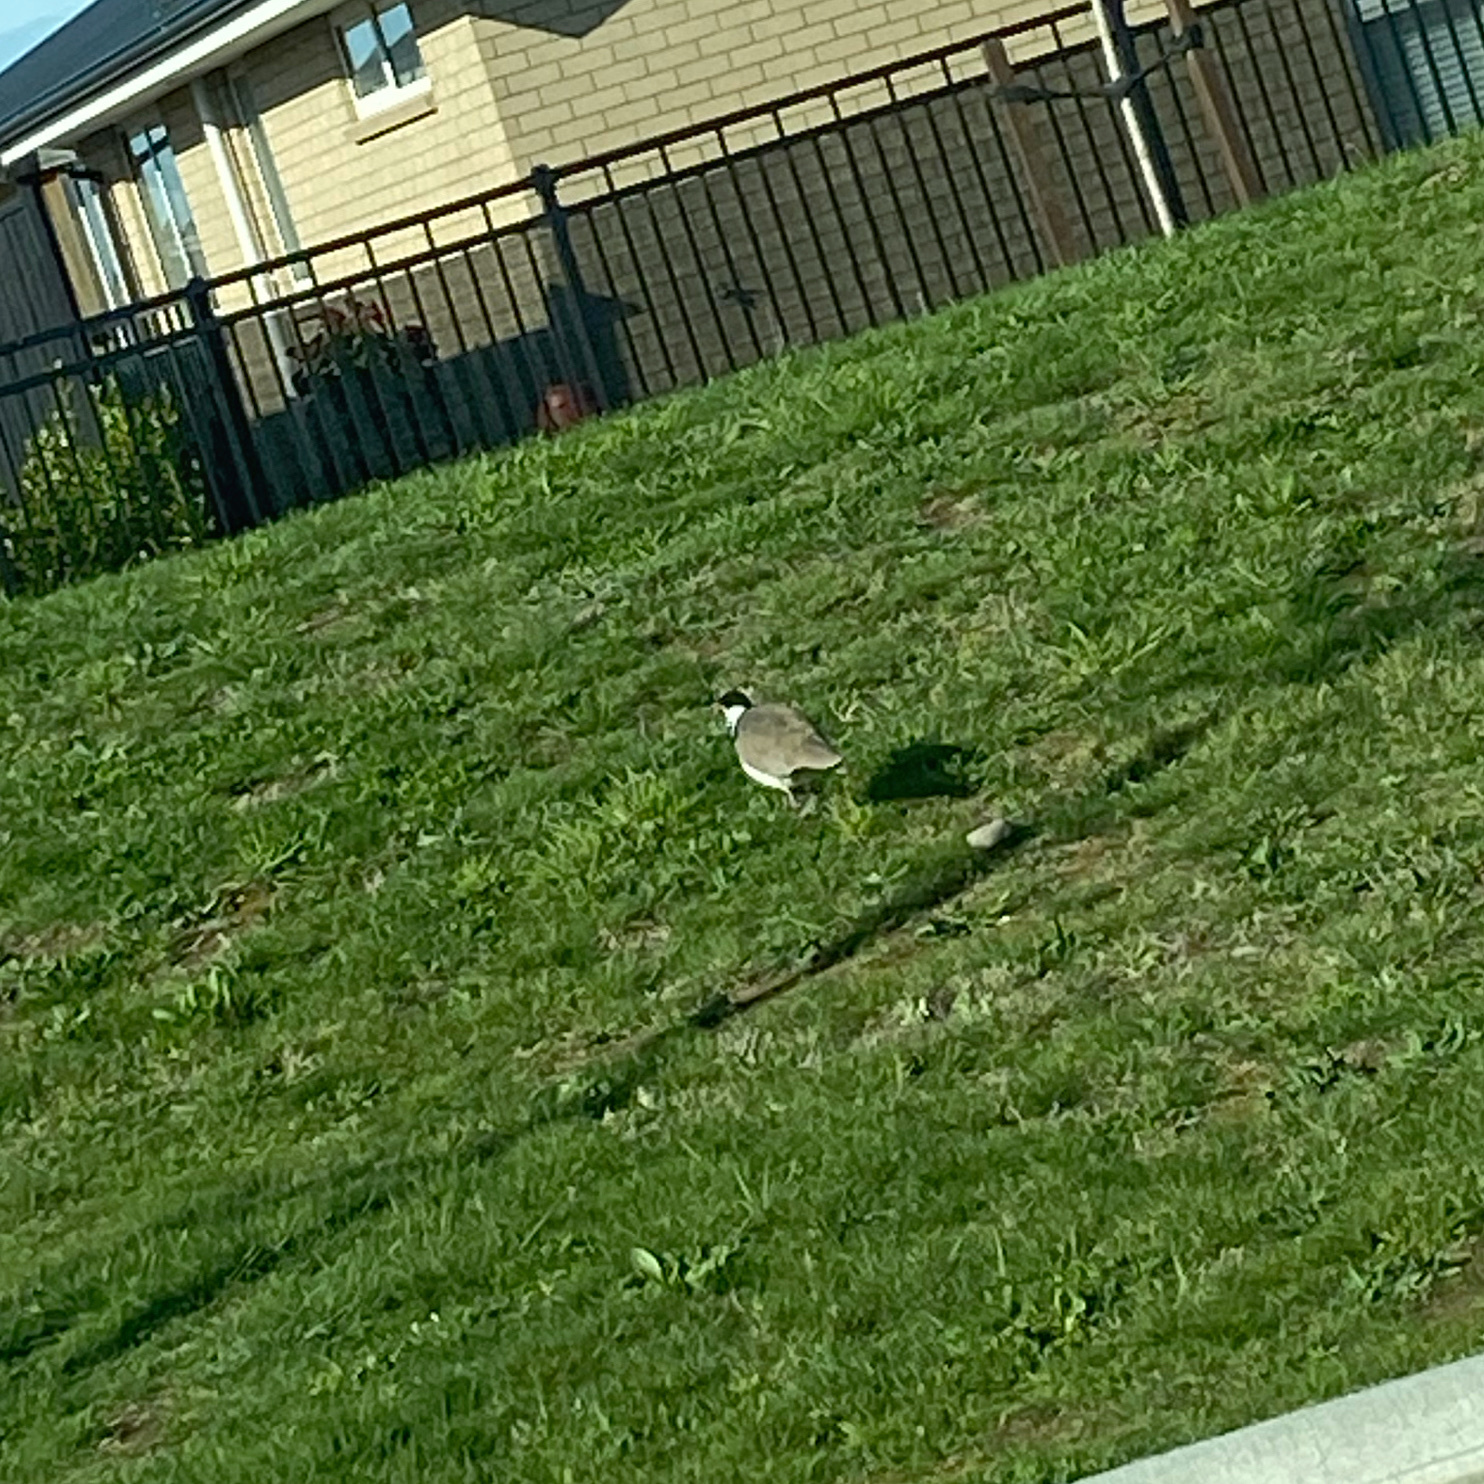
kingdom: Animalia
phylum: Chordata
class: Aves
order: Charadriiformes
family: Charadriidae
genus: Vanellus
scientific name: Vanellus miles
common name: Masked lapwing
